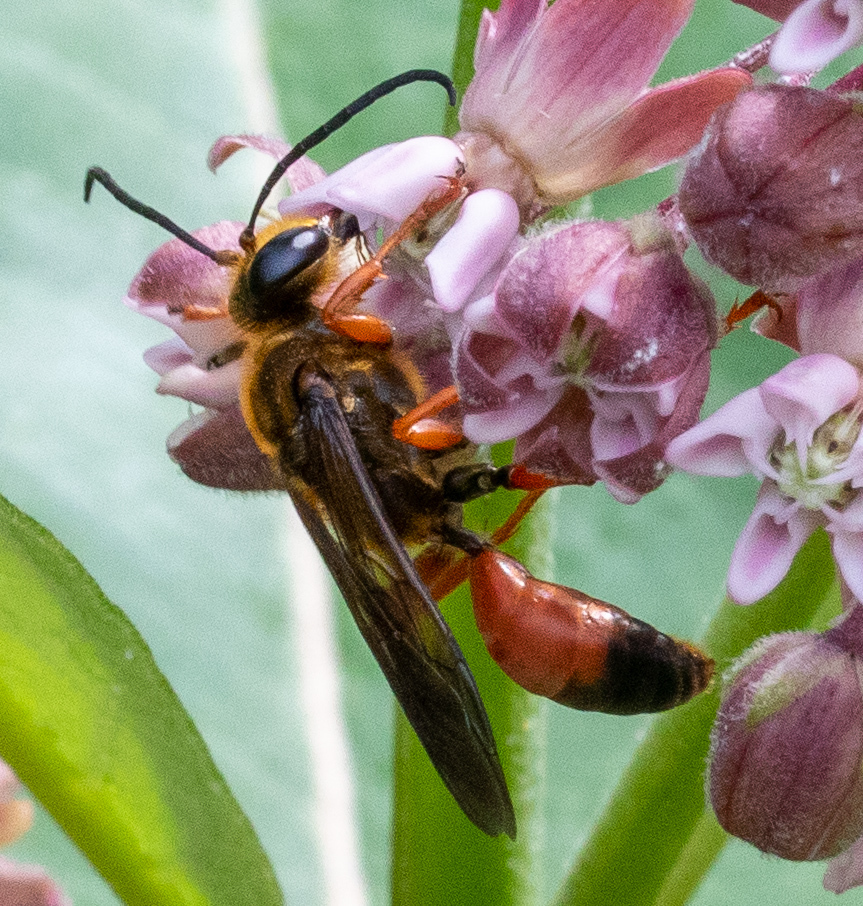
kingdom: Animalia
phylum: Arthropoda
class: Insecta
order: Hymenoptera
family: Sphecidae
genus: Sphex
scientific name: Sphex ichneumoneus
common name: Great golden digger wasp
